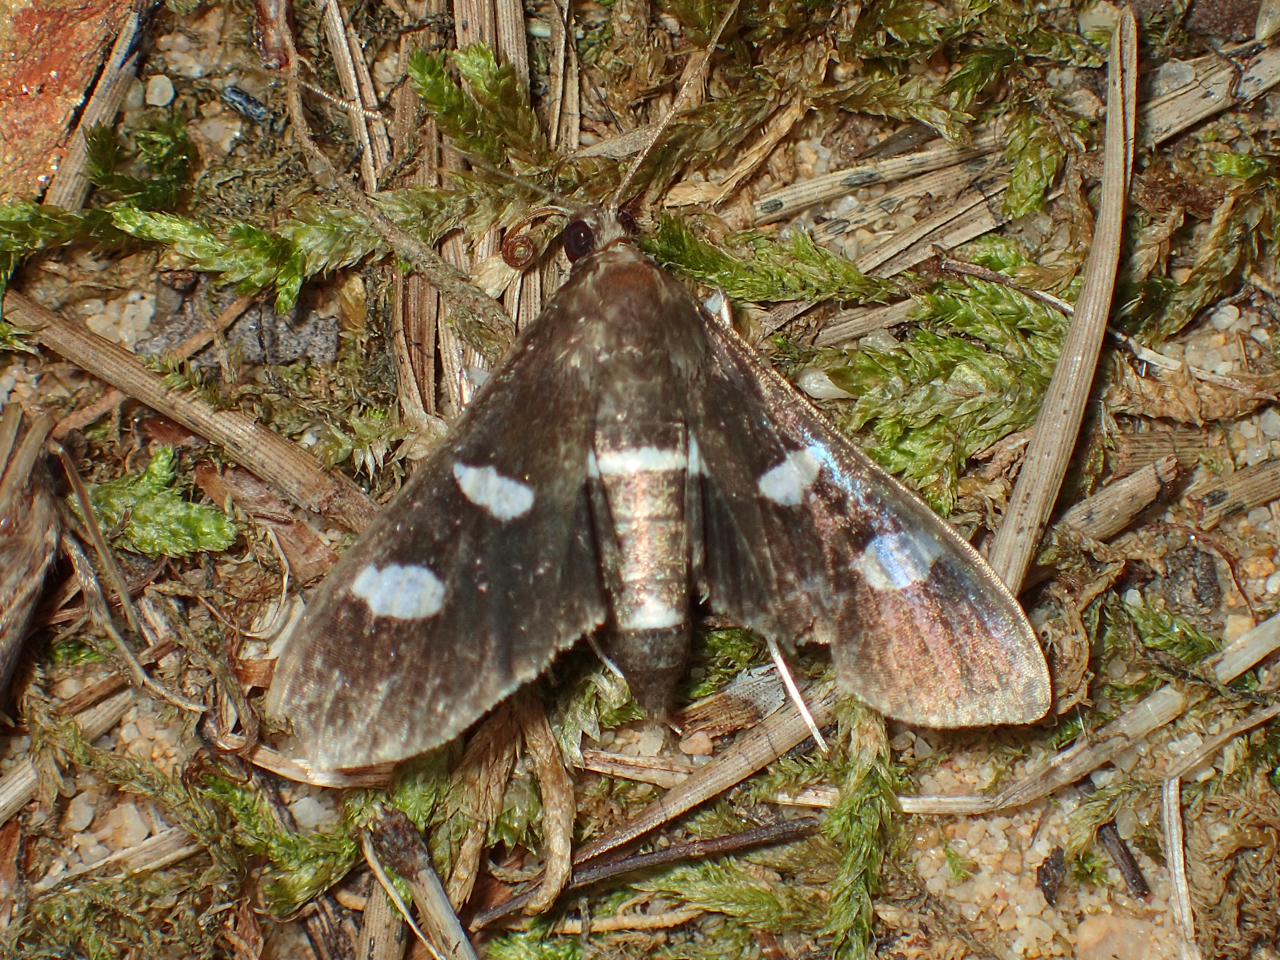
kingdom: Animalia
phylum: Arthropoda
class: Insecta
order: Lepidoptera
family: Crambidae
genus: Desmia
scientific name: Desmia funeralis
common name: Grape leaf folder moth
